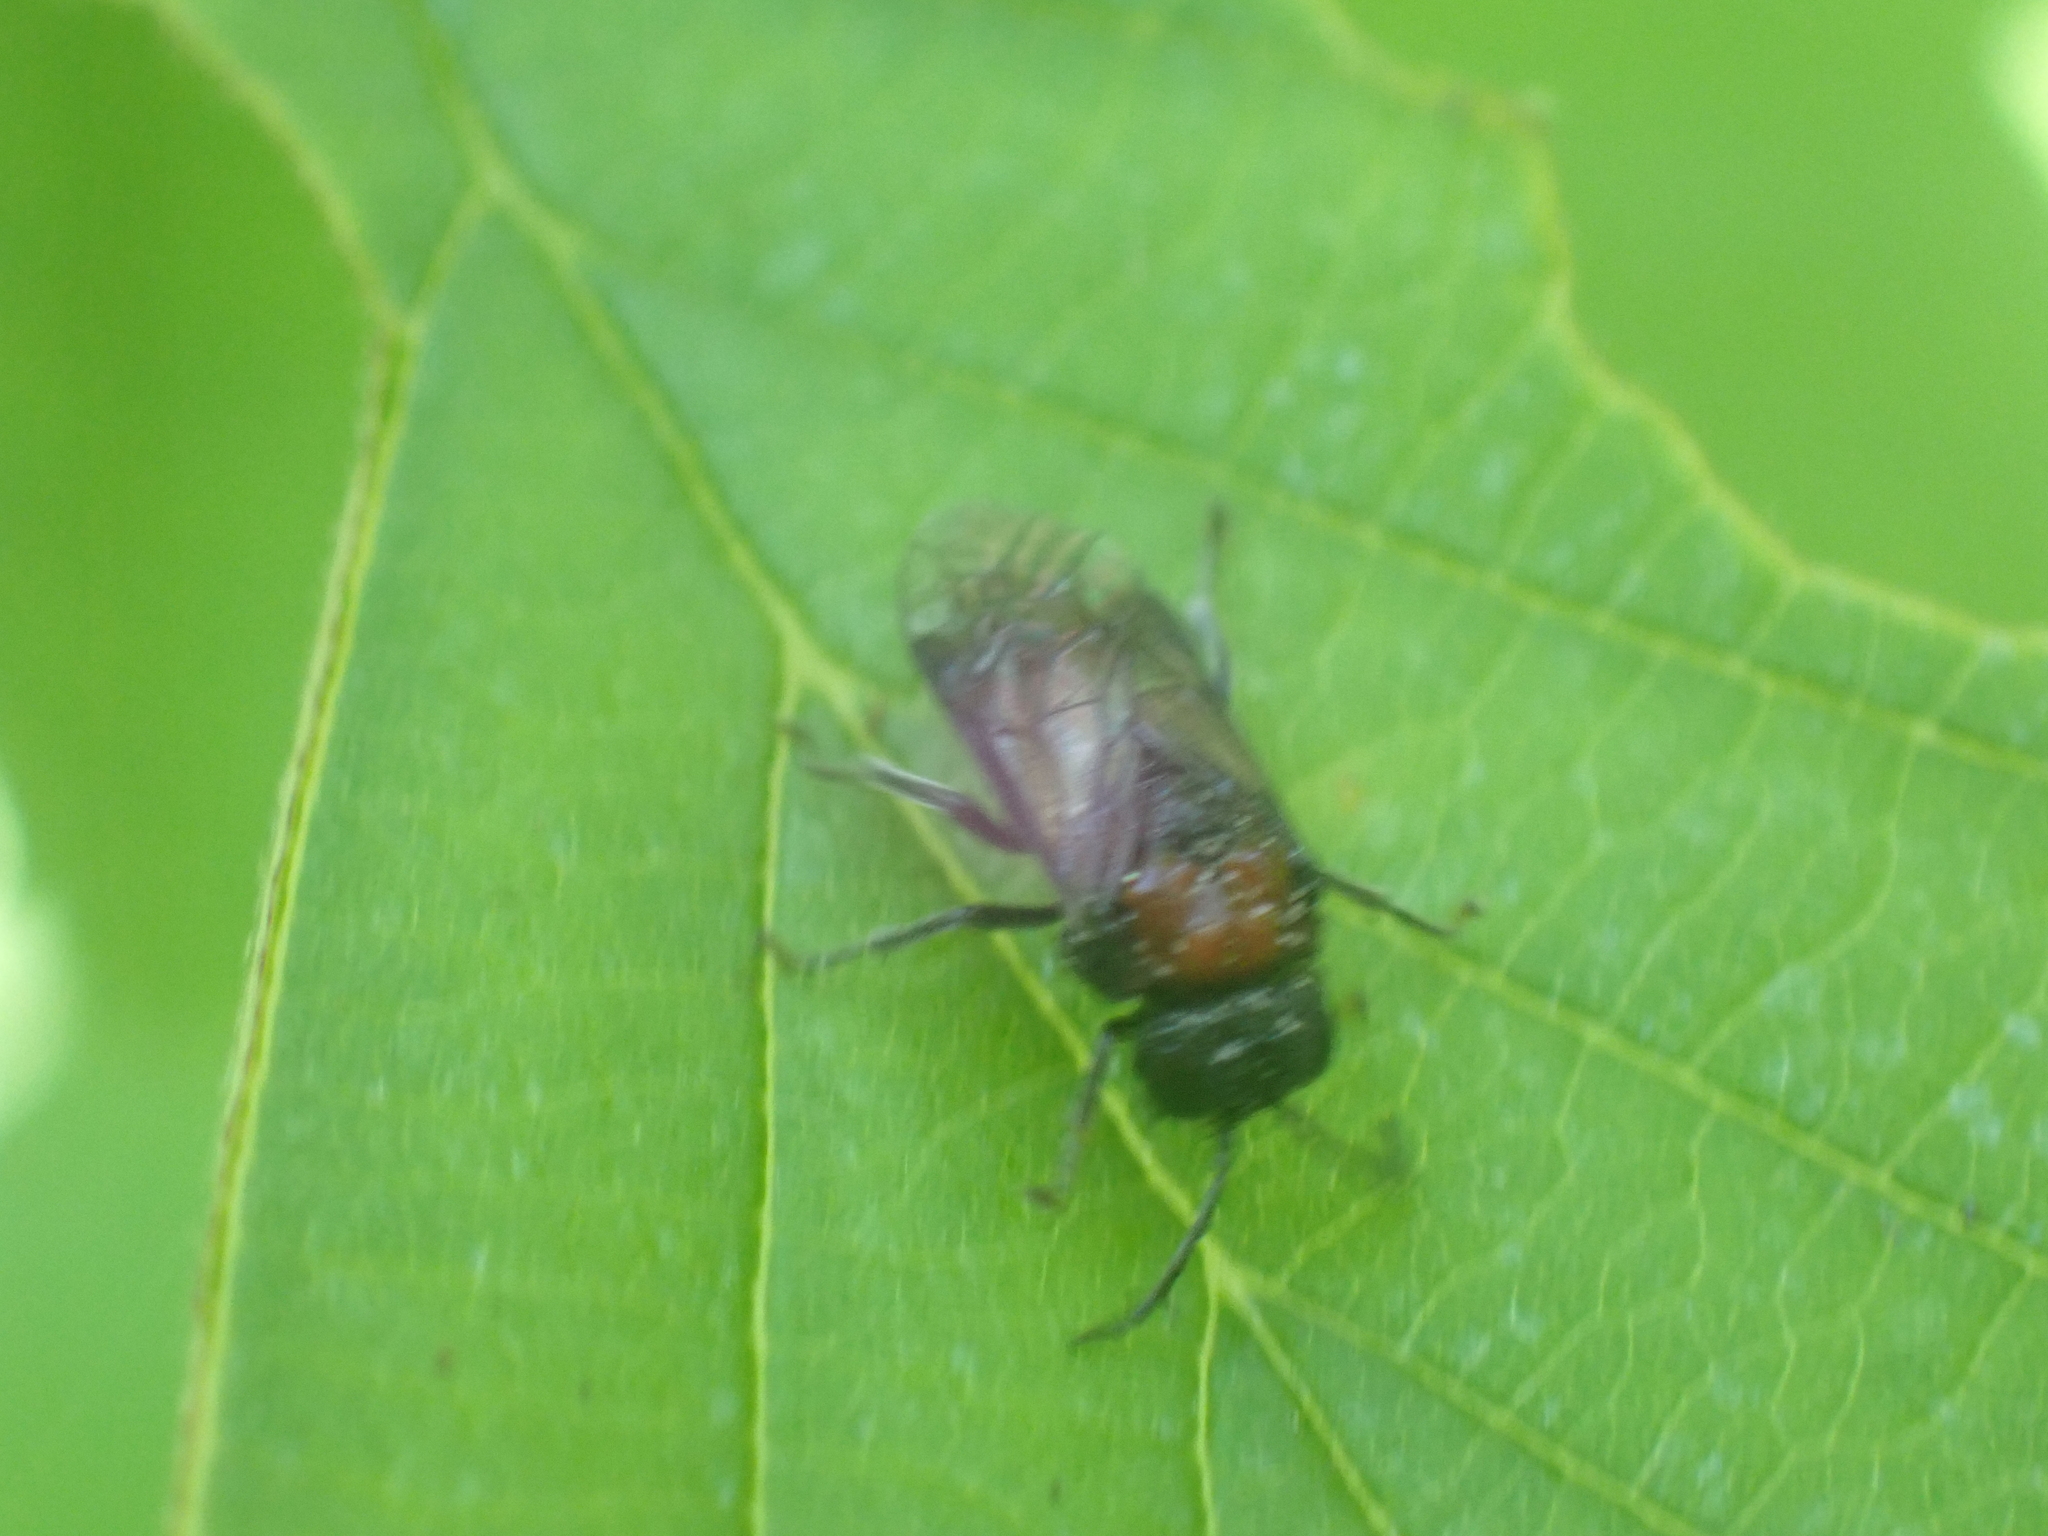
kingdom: Animalia
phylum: Arthropoda
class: Insecta
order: Hymenoptera
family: Tenthredinidae
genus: Eriocampa
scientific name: Eriocampa ovata
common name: Alder wooly sawfly
